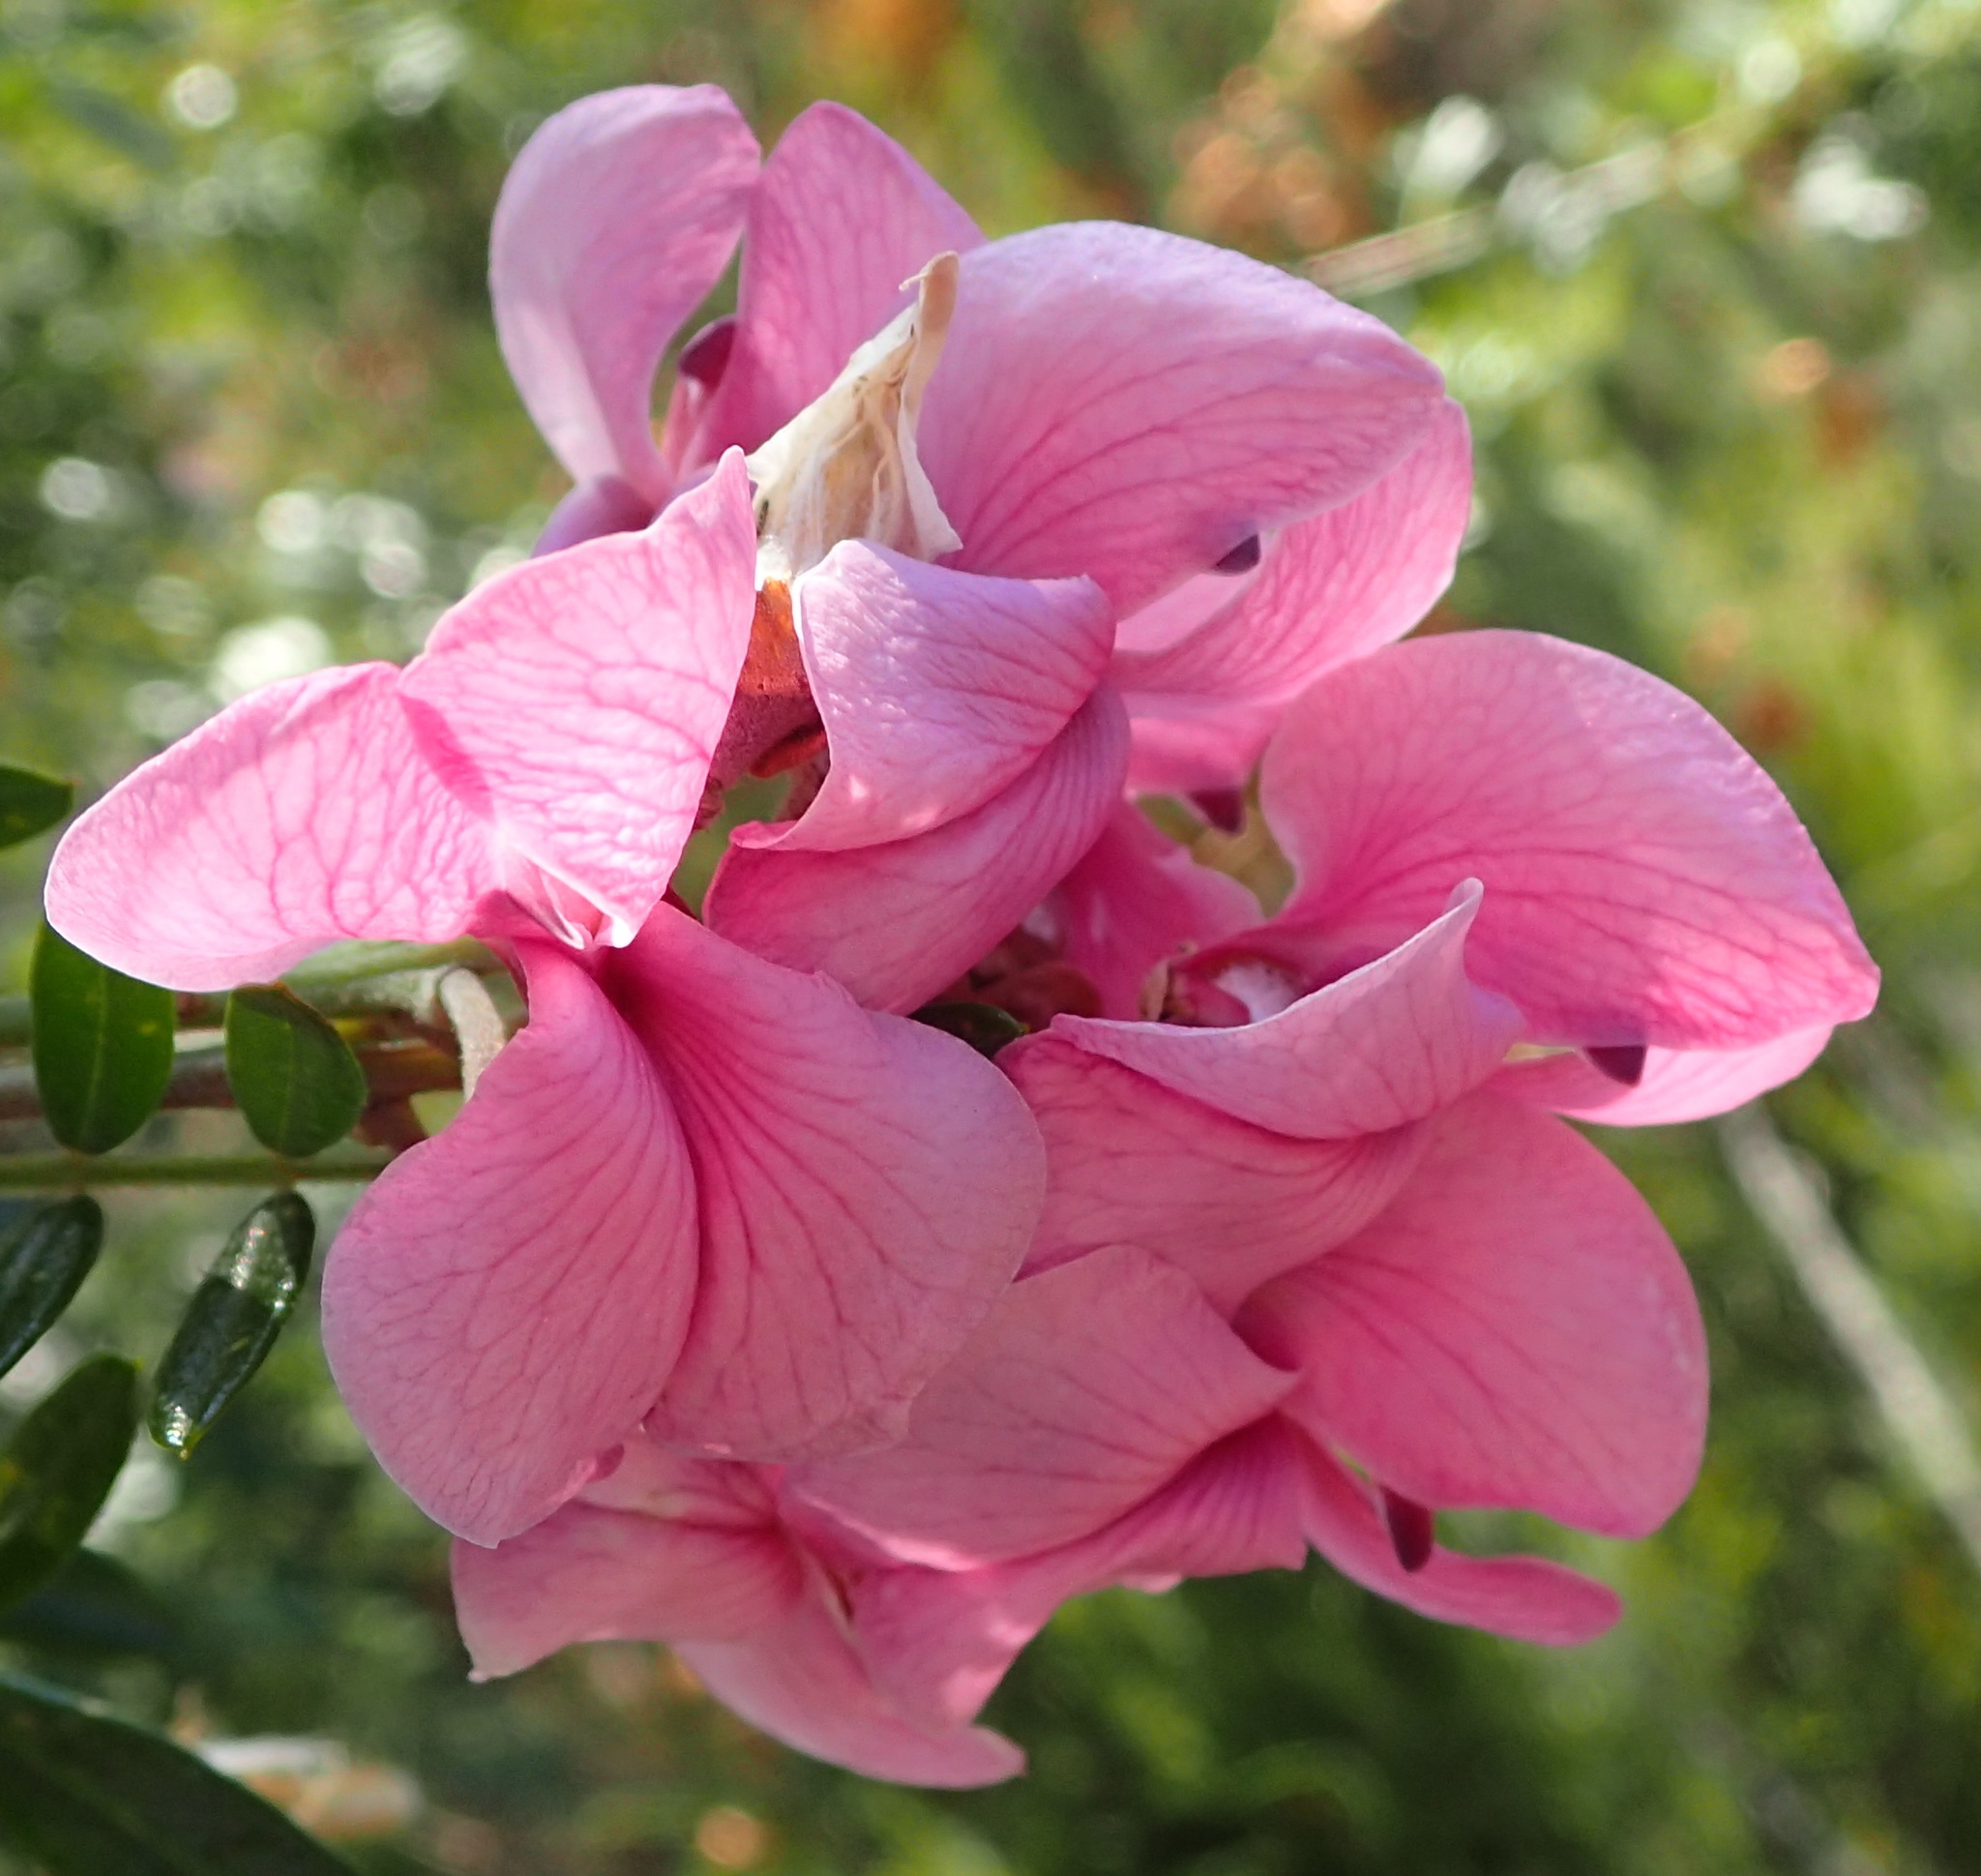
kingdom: Plantae
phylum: Tracheophyta
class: Magnoliopsida
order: Fabales
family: Fabaceae
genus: Virgilia
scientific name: Virgilia divaricata
